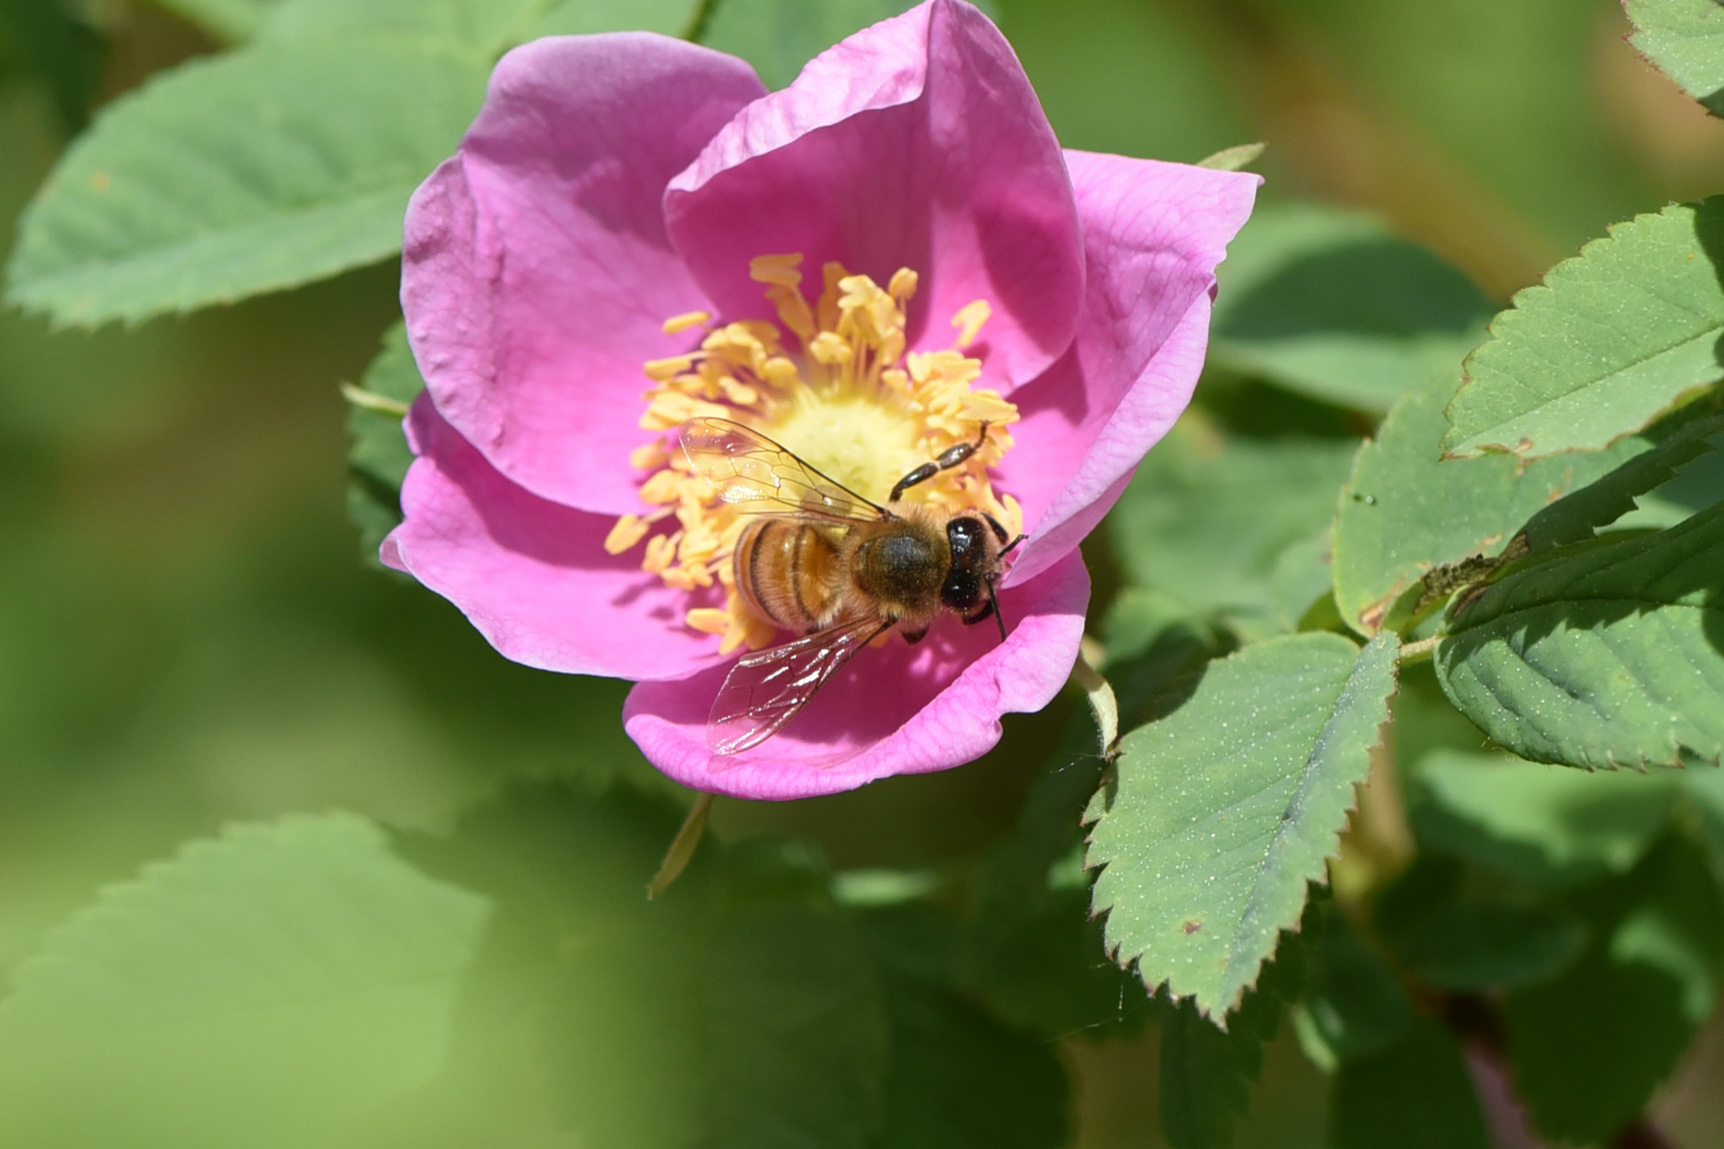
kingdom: Animalia
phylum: Arthropoda
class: Insecta
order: Hymenoptera
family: Apidae
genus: Apis
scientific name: Apis mellifera
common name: Honey bee
